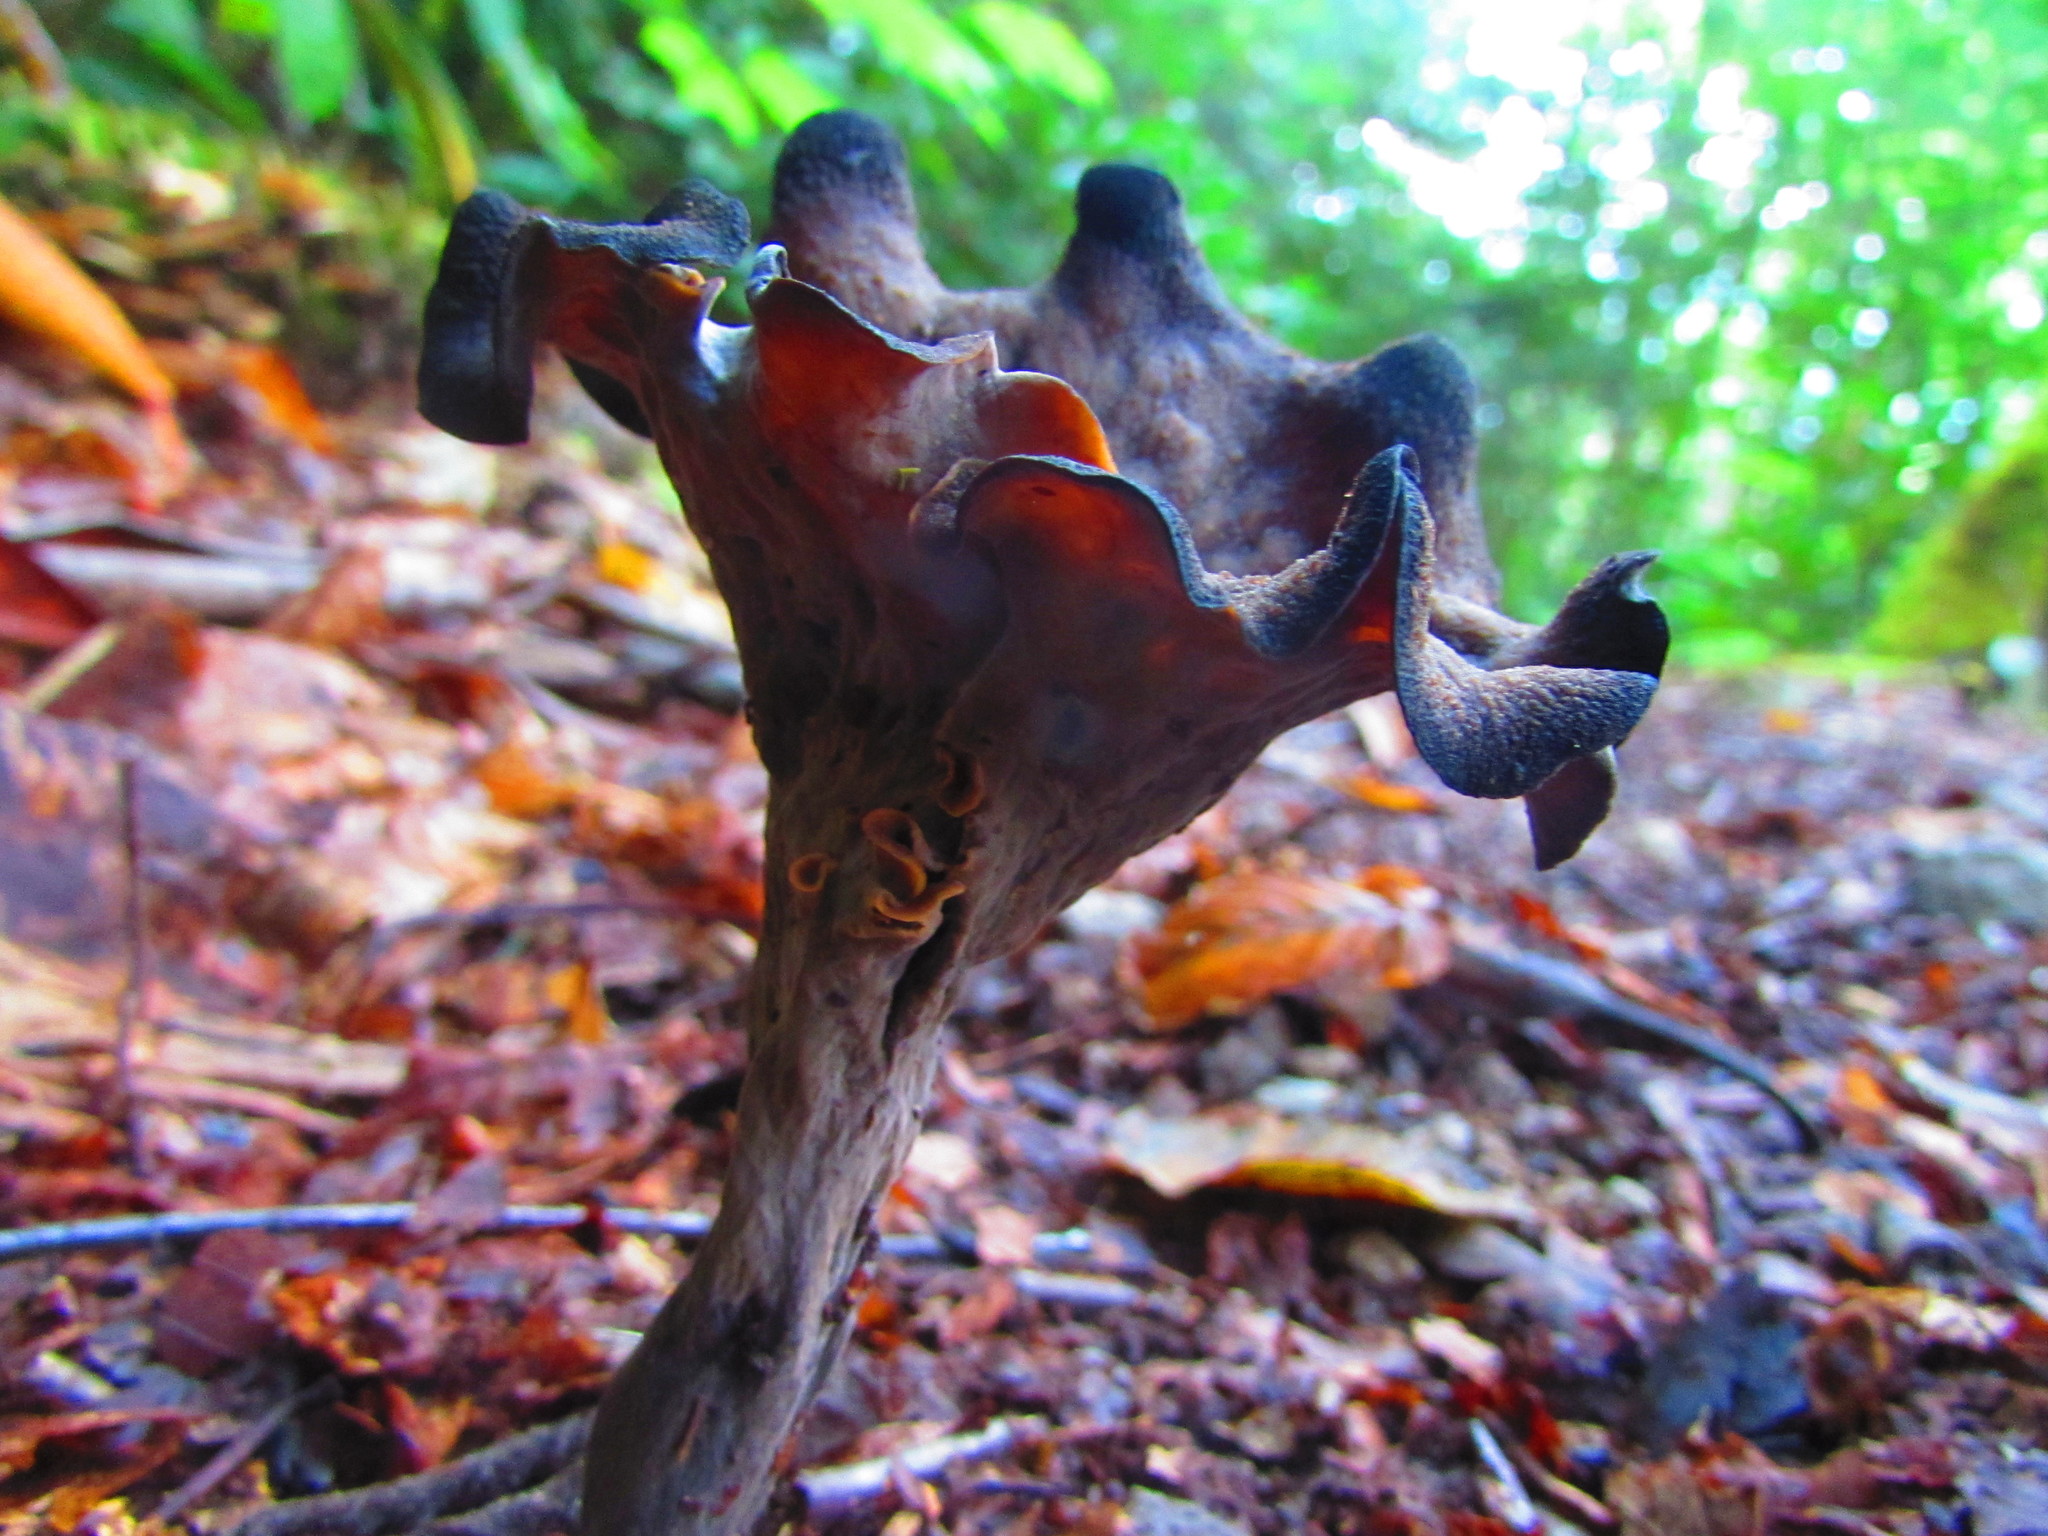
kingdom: Fungi
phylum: Basidiomycota
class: Agaricomycetes
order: Cantharellales
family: Hydnaceae
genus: Craterellus
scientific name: Craterellus cornucopioides
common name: Horn of plenty
